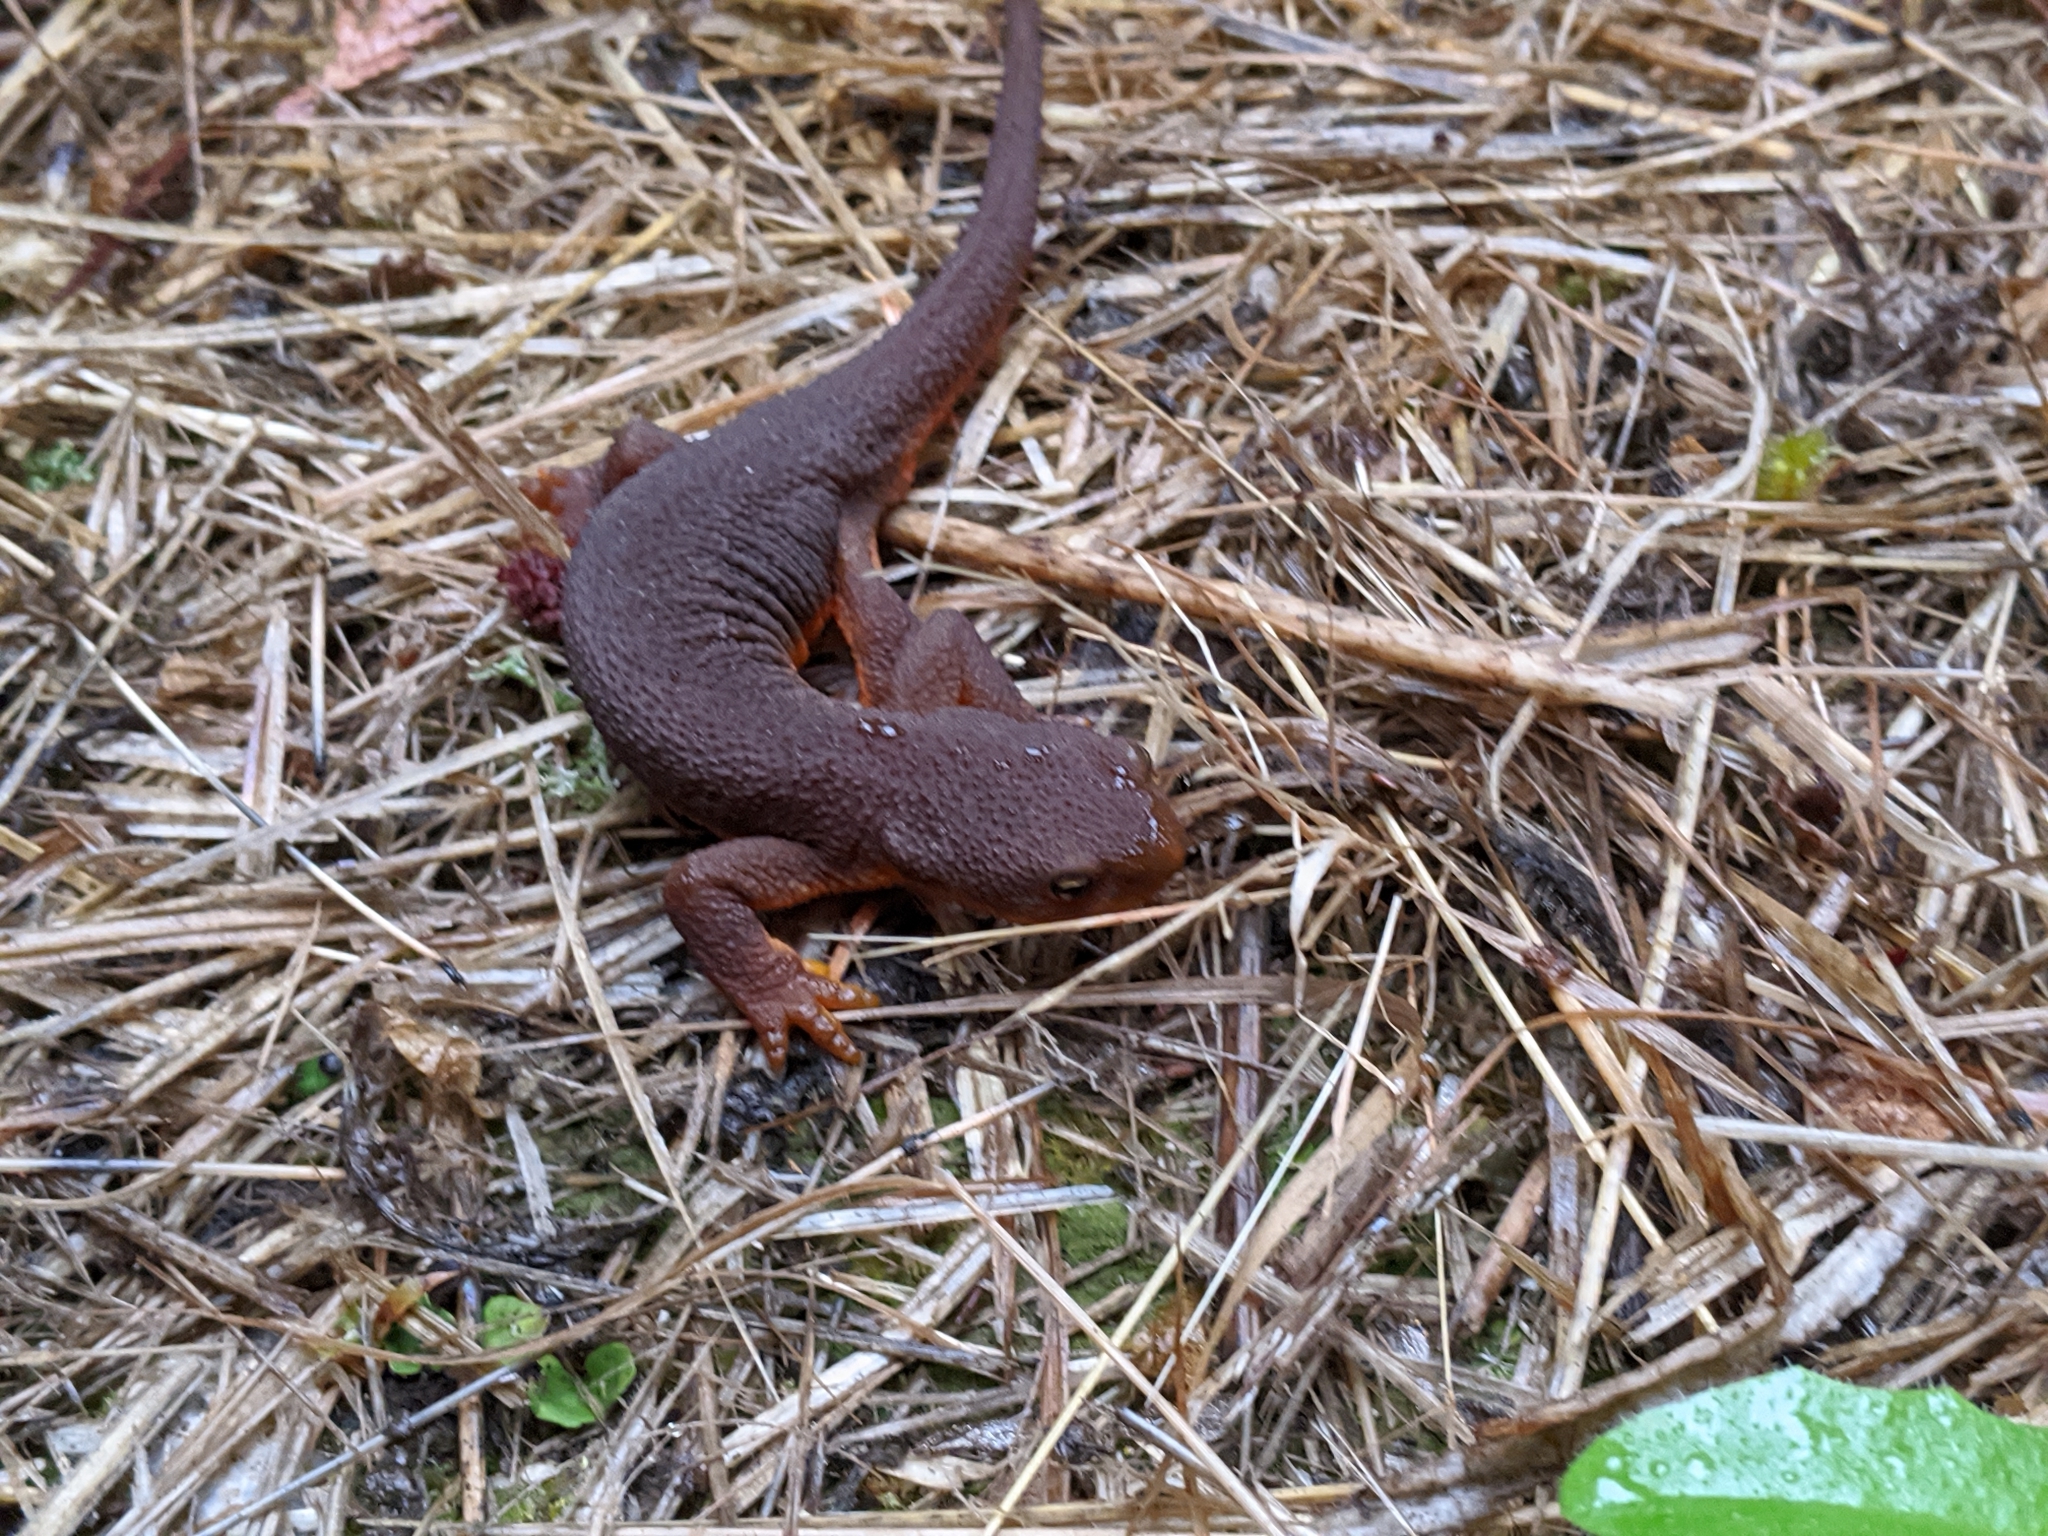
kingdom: Animalia
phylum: Chordata
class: Amphibia
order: Caudata
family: Salamandridae
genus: Taricha
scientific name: Taricha granulosa
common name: Roughskin newt
